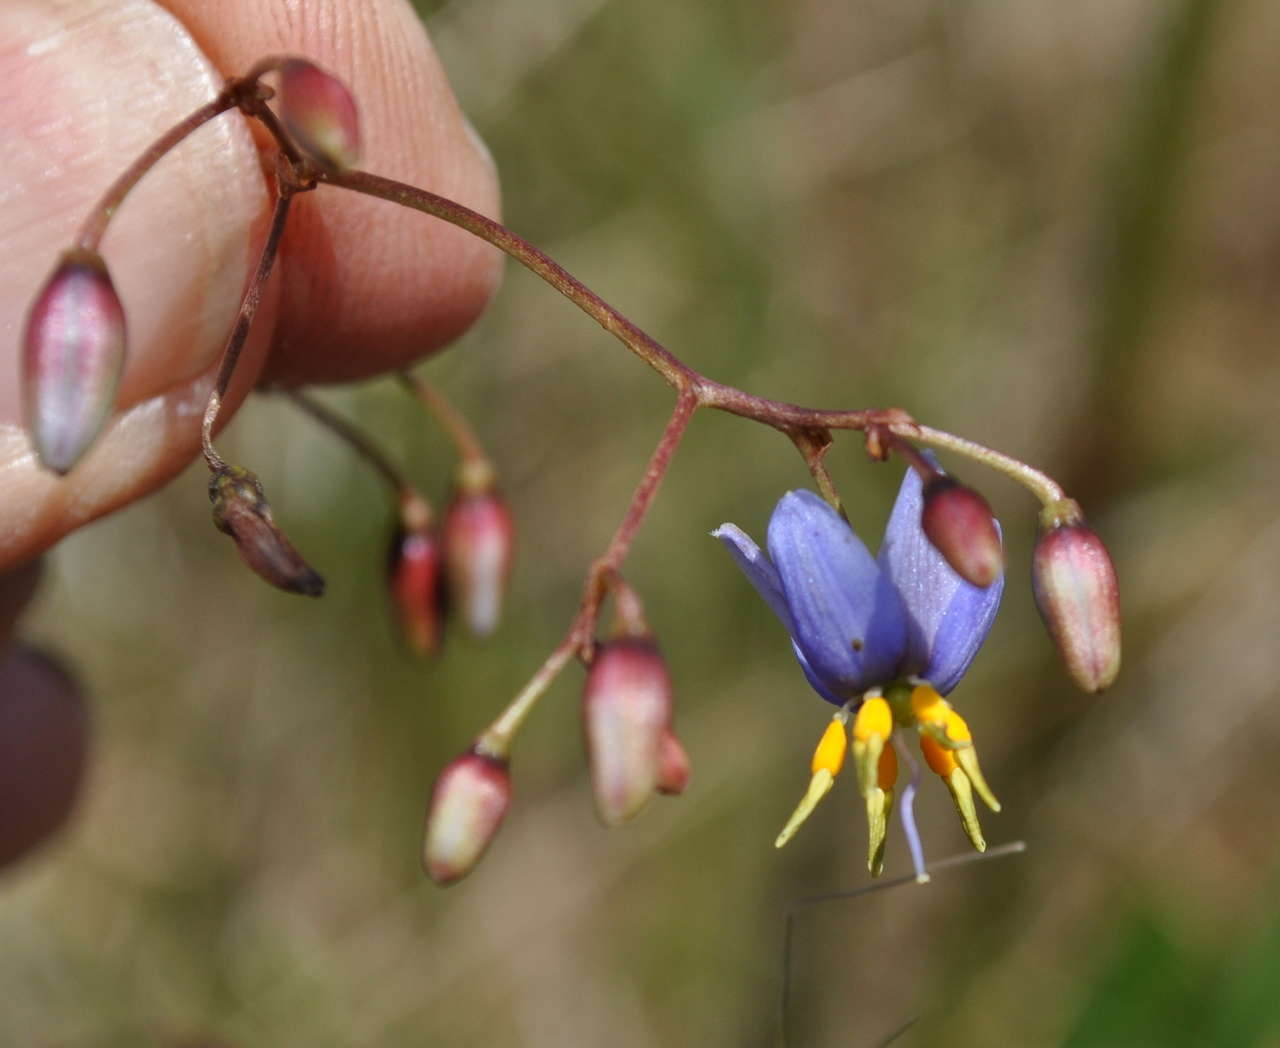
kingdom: Plantae
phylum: Tracheophyta
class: Liliopsida
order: Asparagales
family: Asphodelaceae
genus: Dianella
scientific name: Dianella callicarpa
